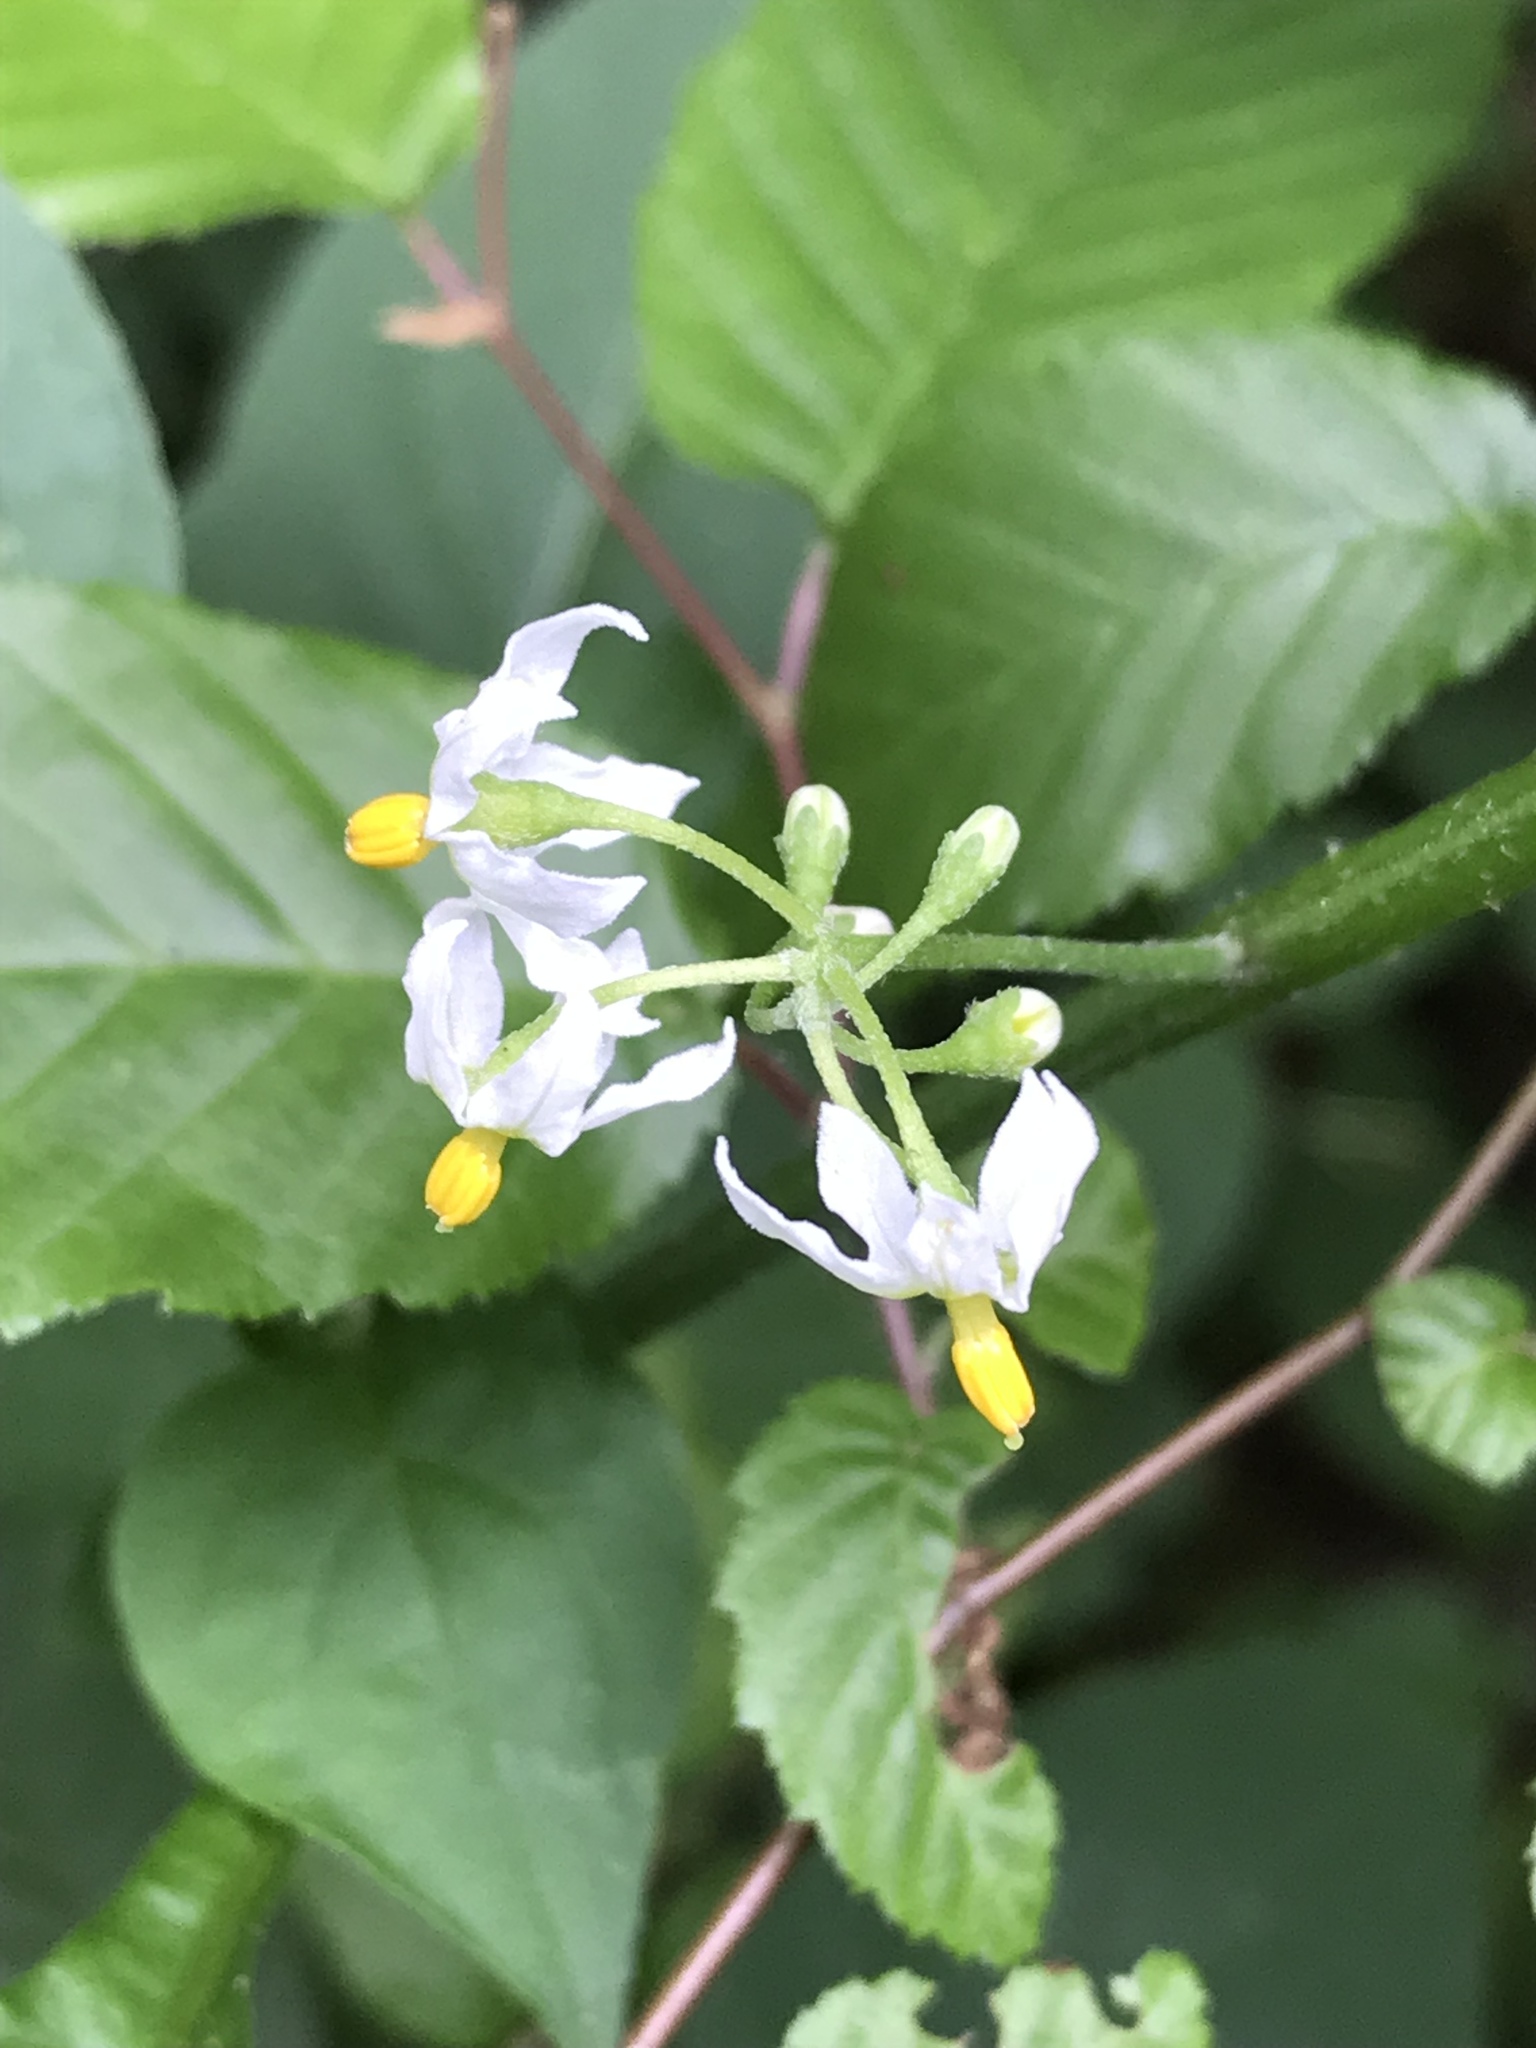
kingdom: Plantae
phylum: Tracheophyta
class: Magnoliopsida
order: Solanales
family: Solanaceae
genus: Solanum
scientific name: Solanum americanum
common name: American black nightshade
